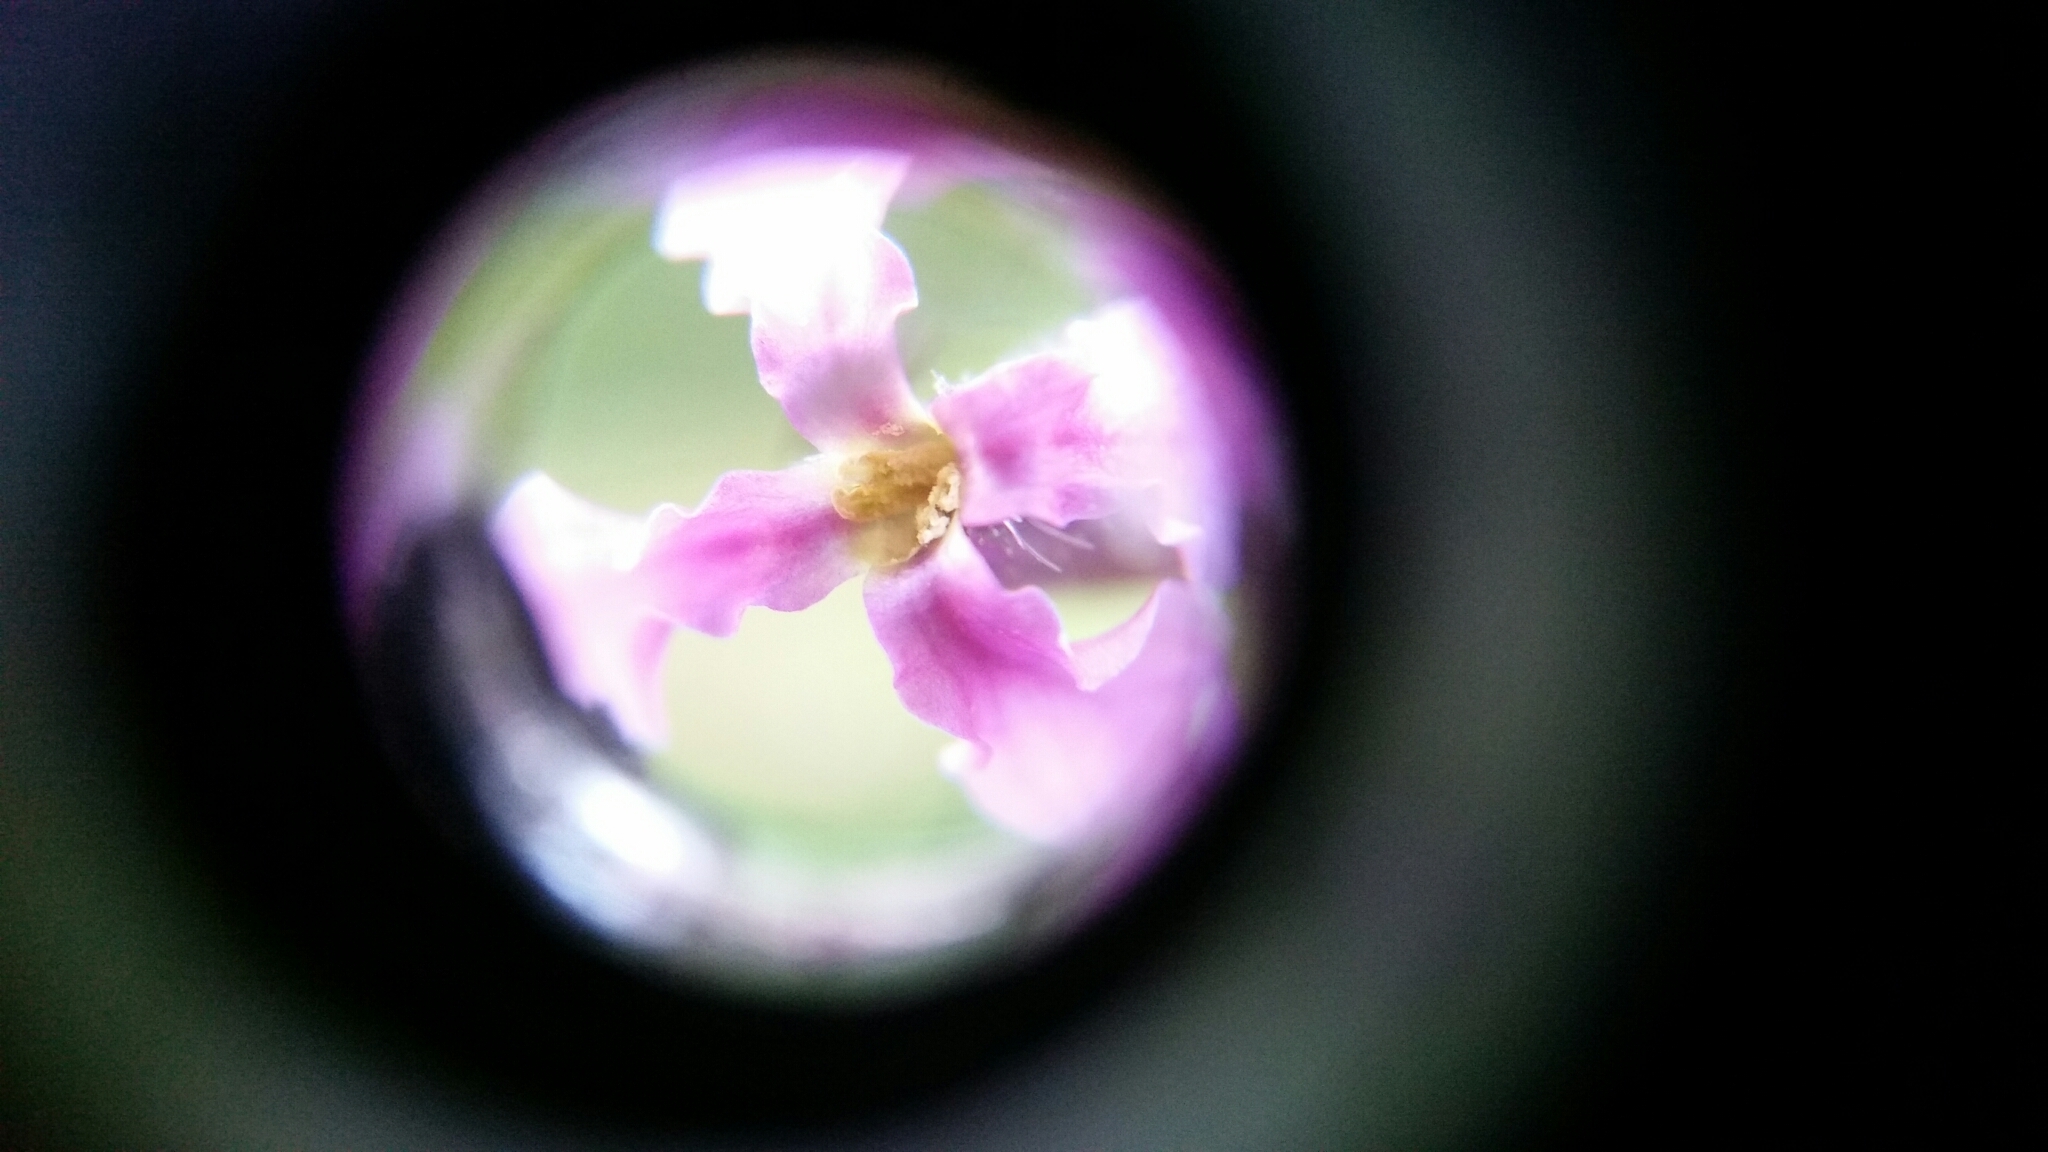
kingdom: Plantae
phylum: Tracheophyta
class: Magnoliopsida
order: Brassicales
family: Brassicaceae
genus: Chorispora
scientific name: Chorispora tenella
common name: Crossflower
